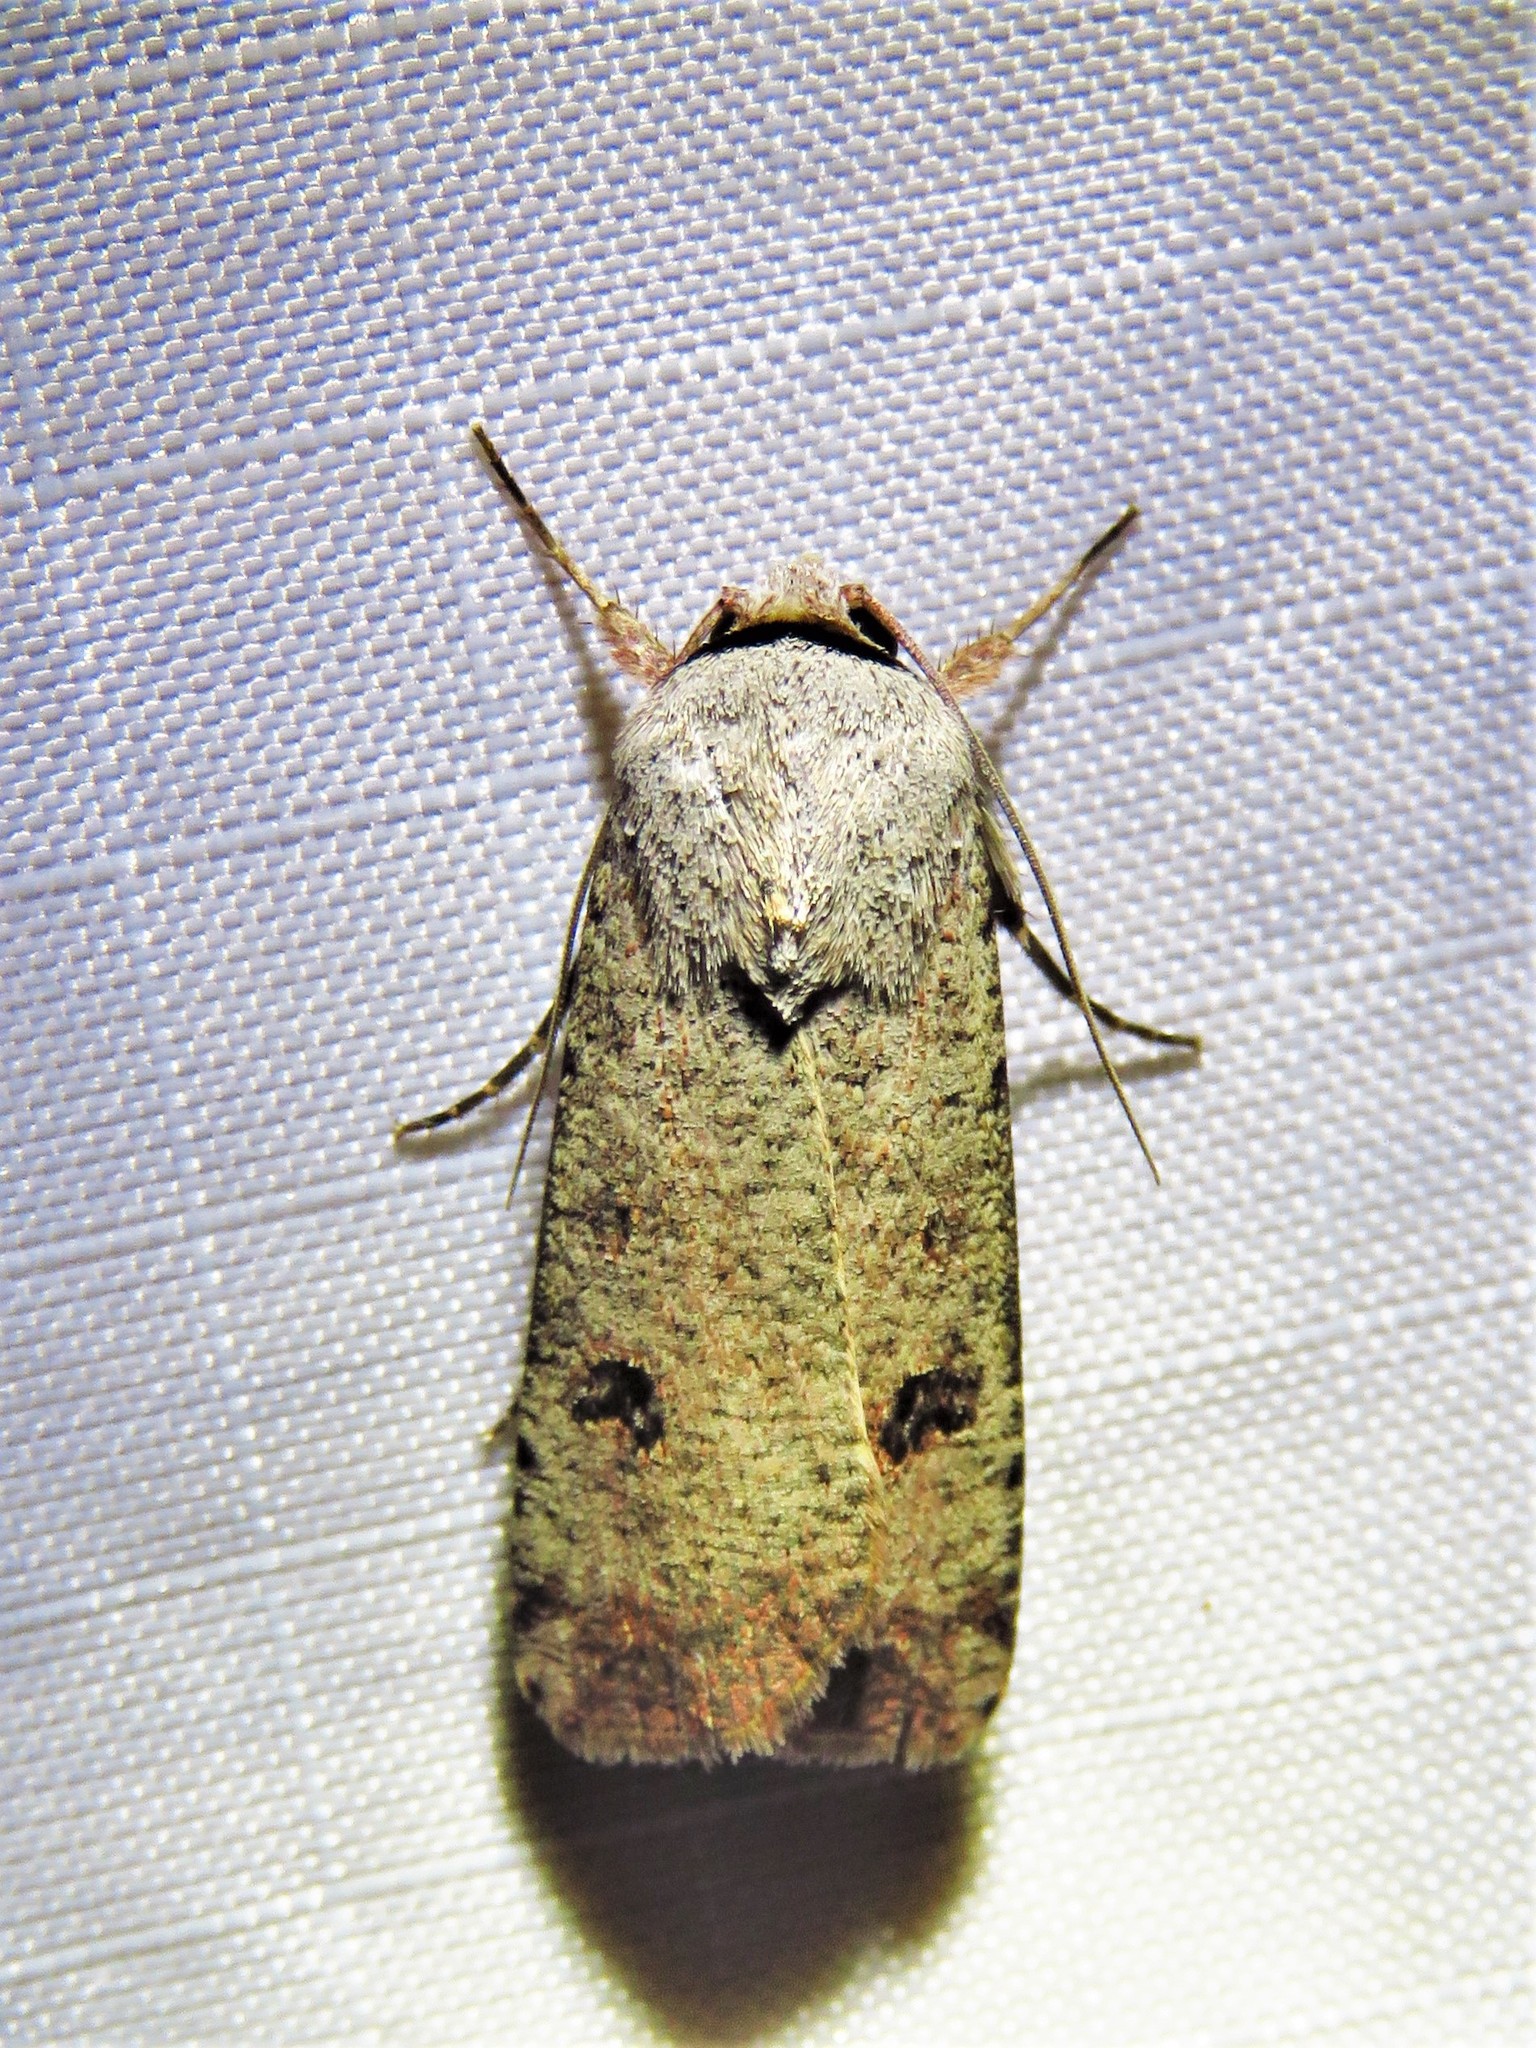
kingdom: Animalia
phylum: Arthropoda
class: Insecta
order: Lepidoptera
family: Noctuidae
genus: Anicla
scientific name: Anicla infecta
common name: Green cutworm
